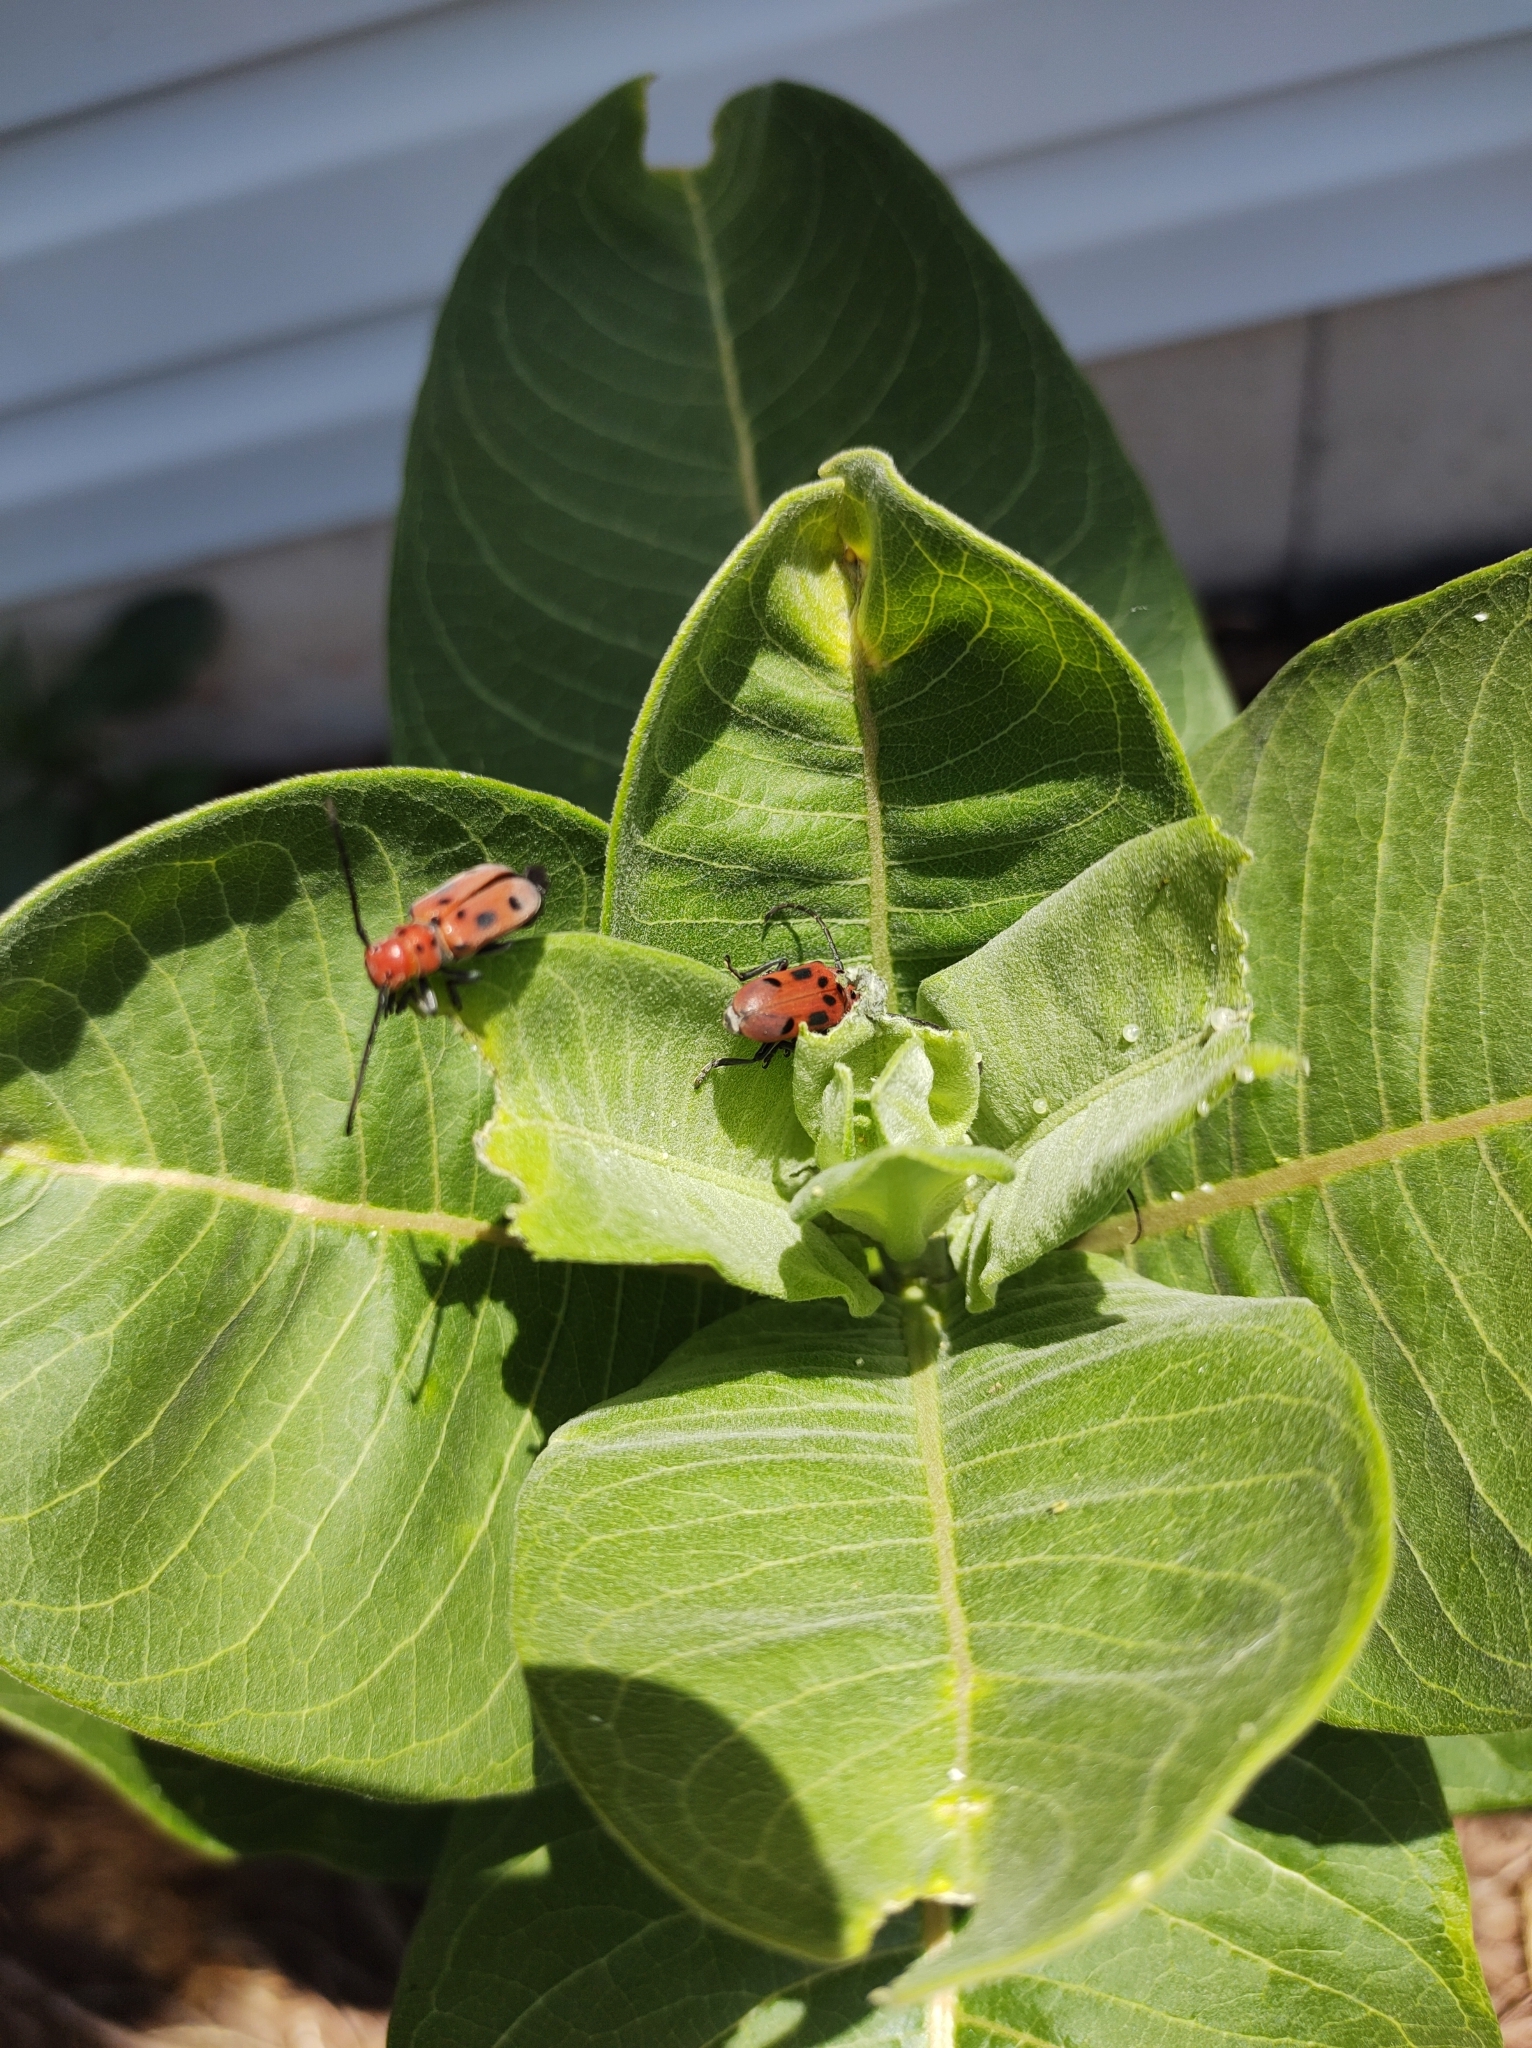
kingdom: Animalia
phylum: Arthropoda
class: Insecta
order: Coleoptera
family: Cerambycidae
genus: Tetraopes
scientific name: Tetraopes tetrophthalmus
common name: Red milkweed beetle
